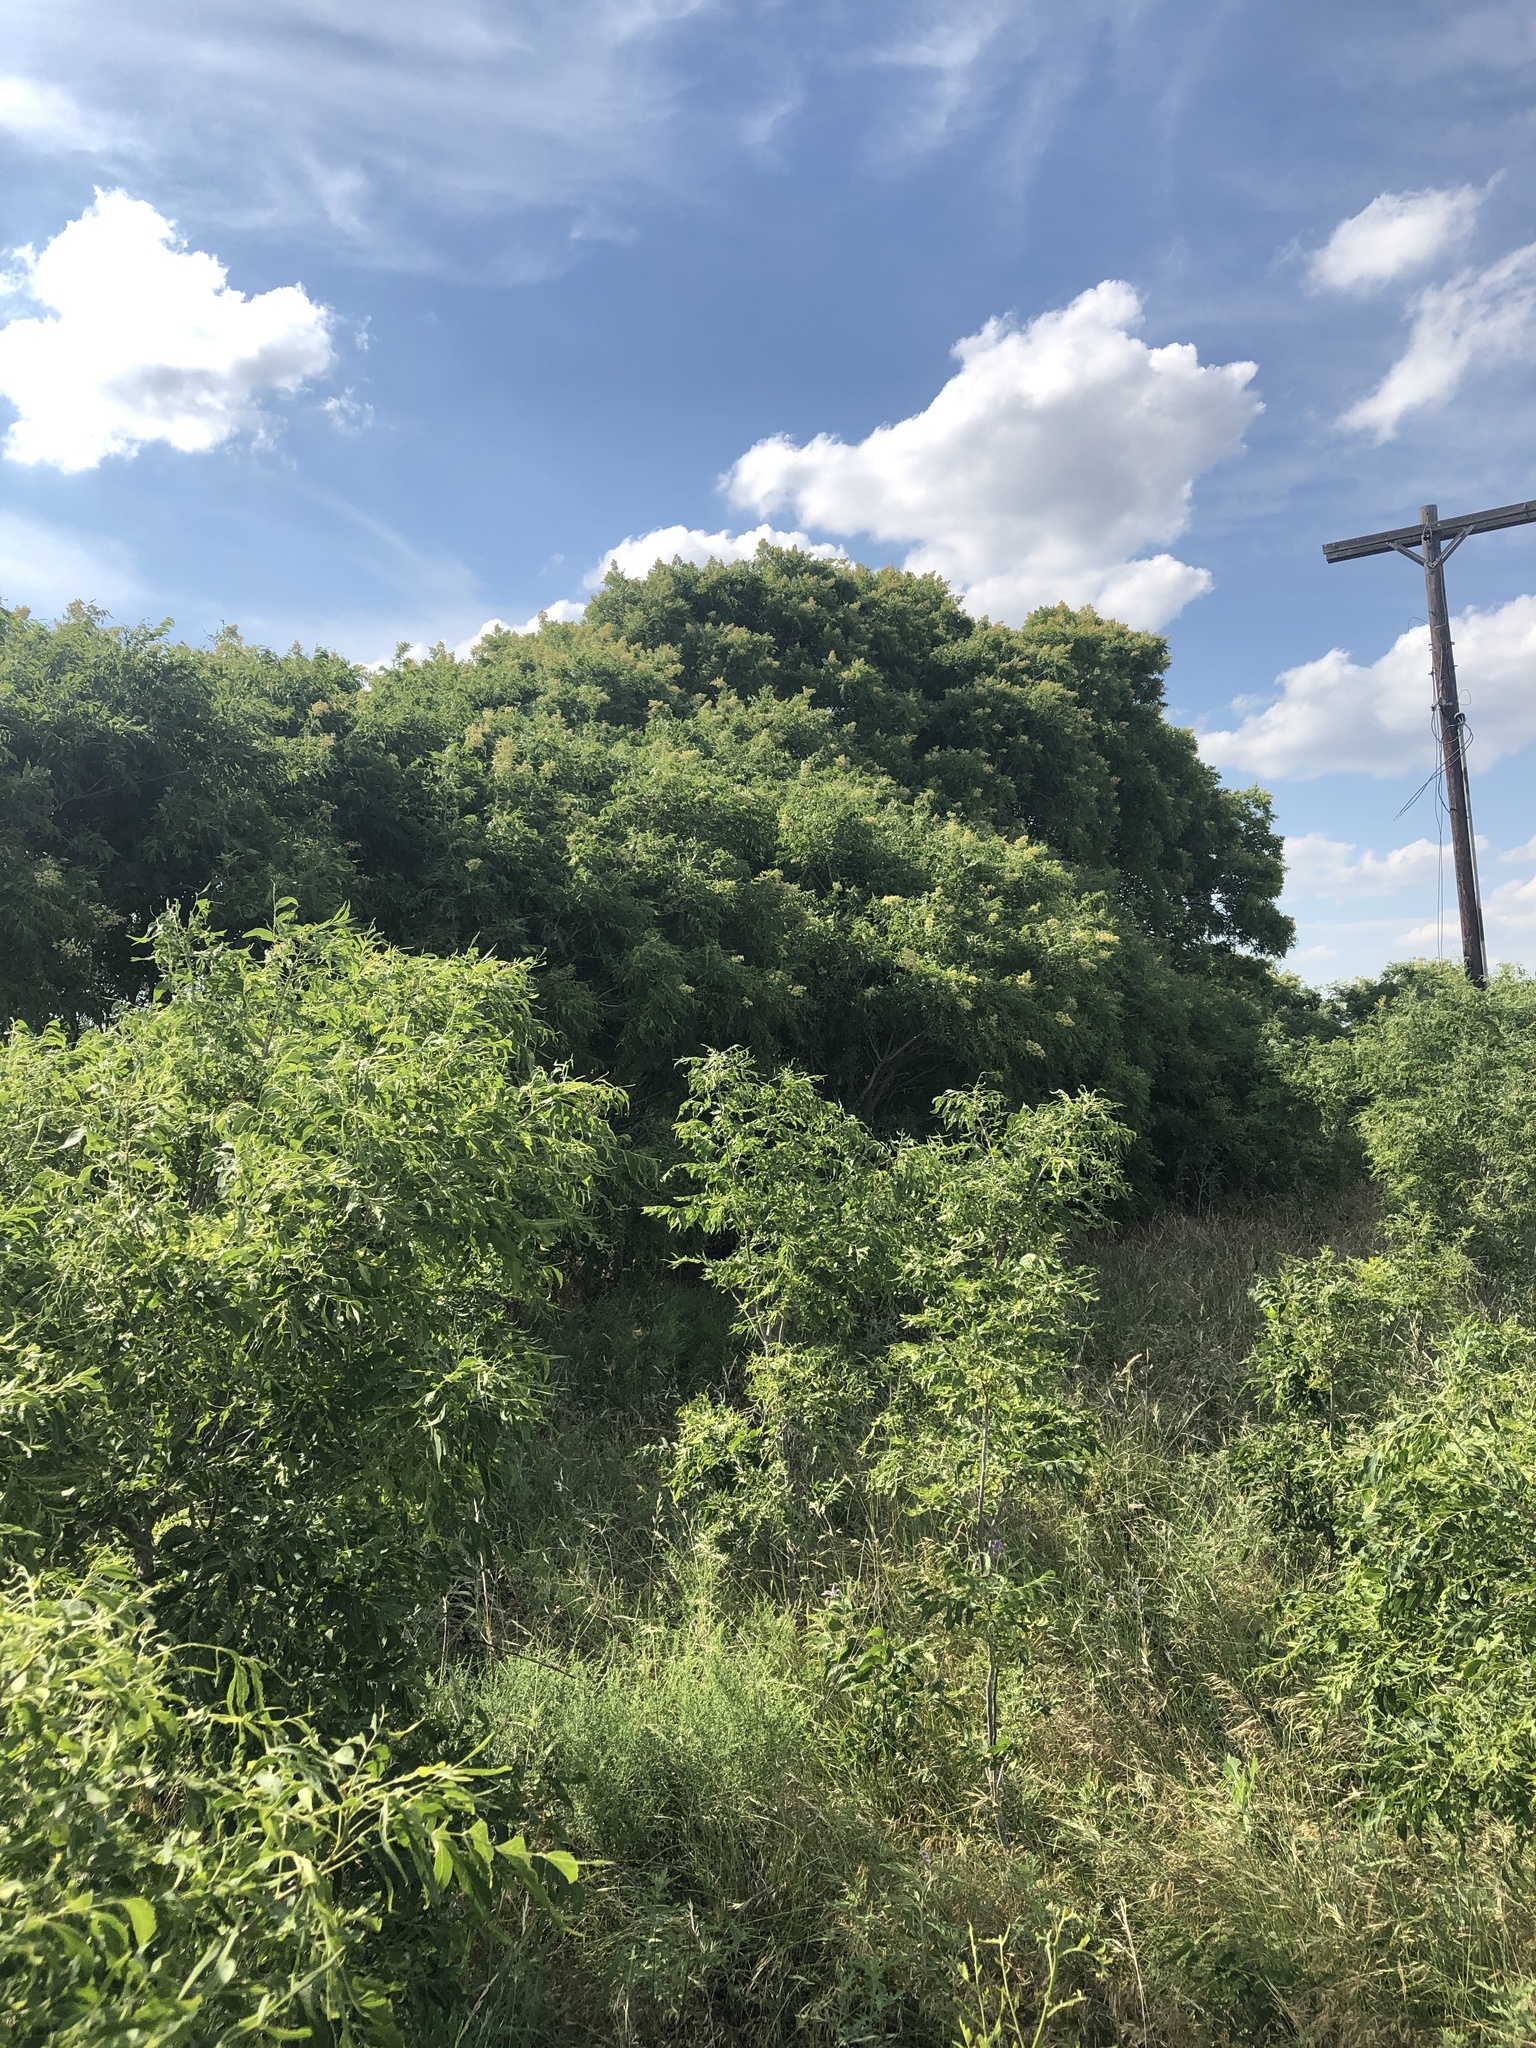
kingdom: Plantae
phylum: Tracheophyta
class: Magnoliopsida
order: Sapindales
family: Sapindaceae
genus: Sapindus
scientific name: Sapindus drummondii
